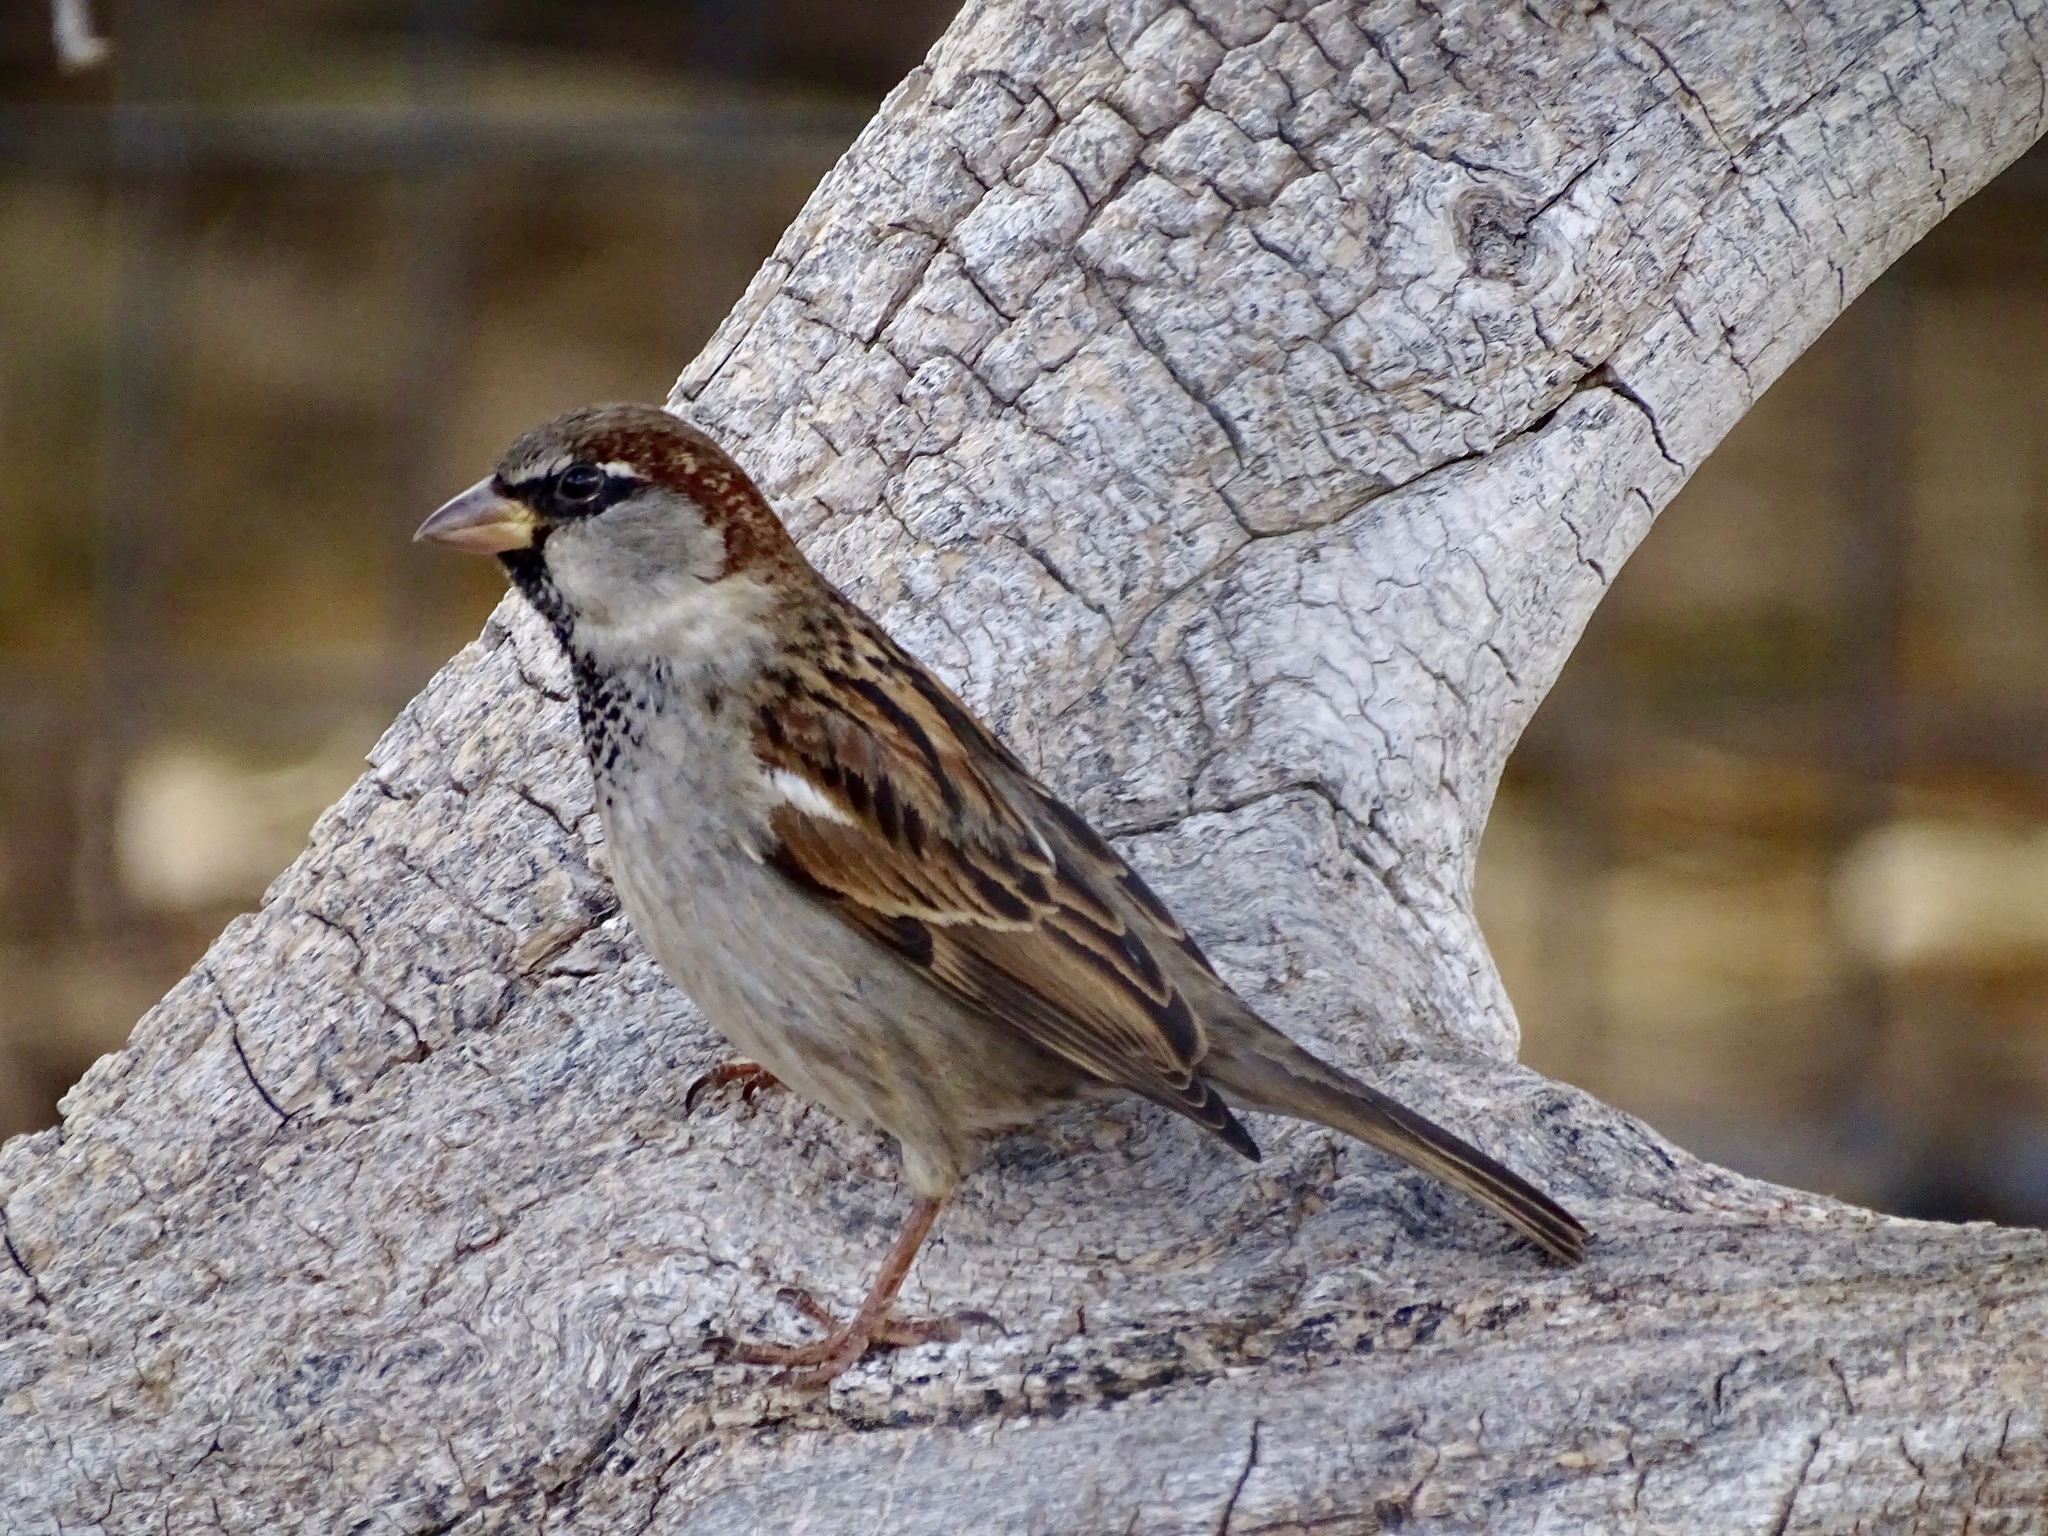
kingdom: Animalia
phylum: Chordata
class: Aves
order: Passeriformes
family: Passeridae
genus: Passer
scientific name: Passer domesticus
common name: House sparrow
